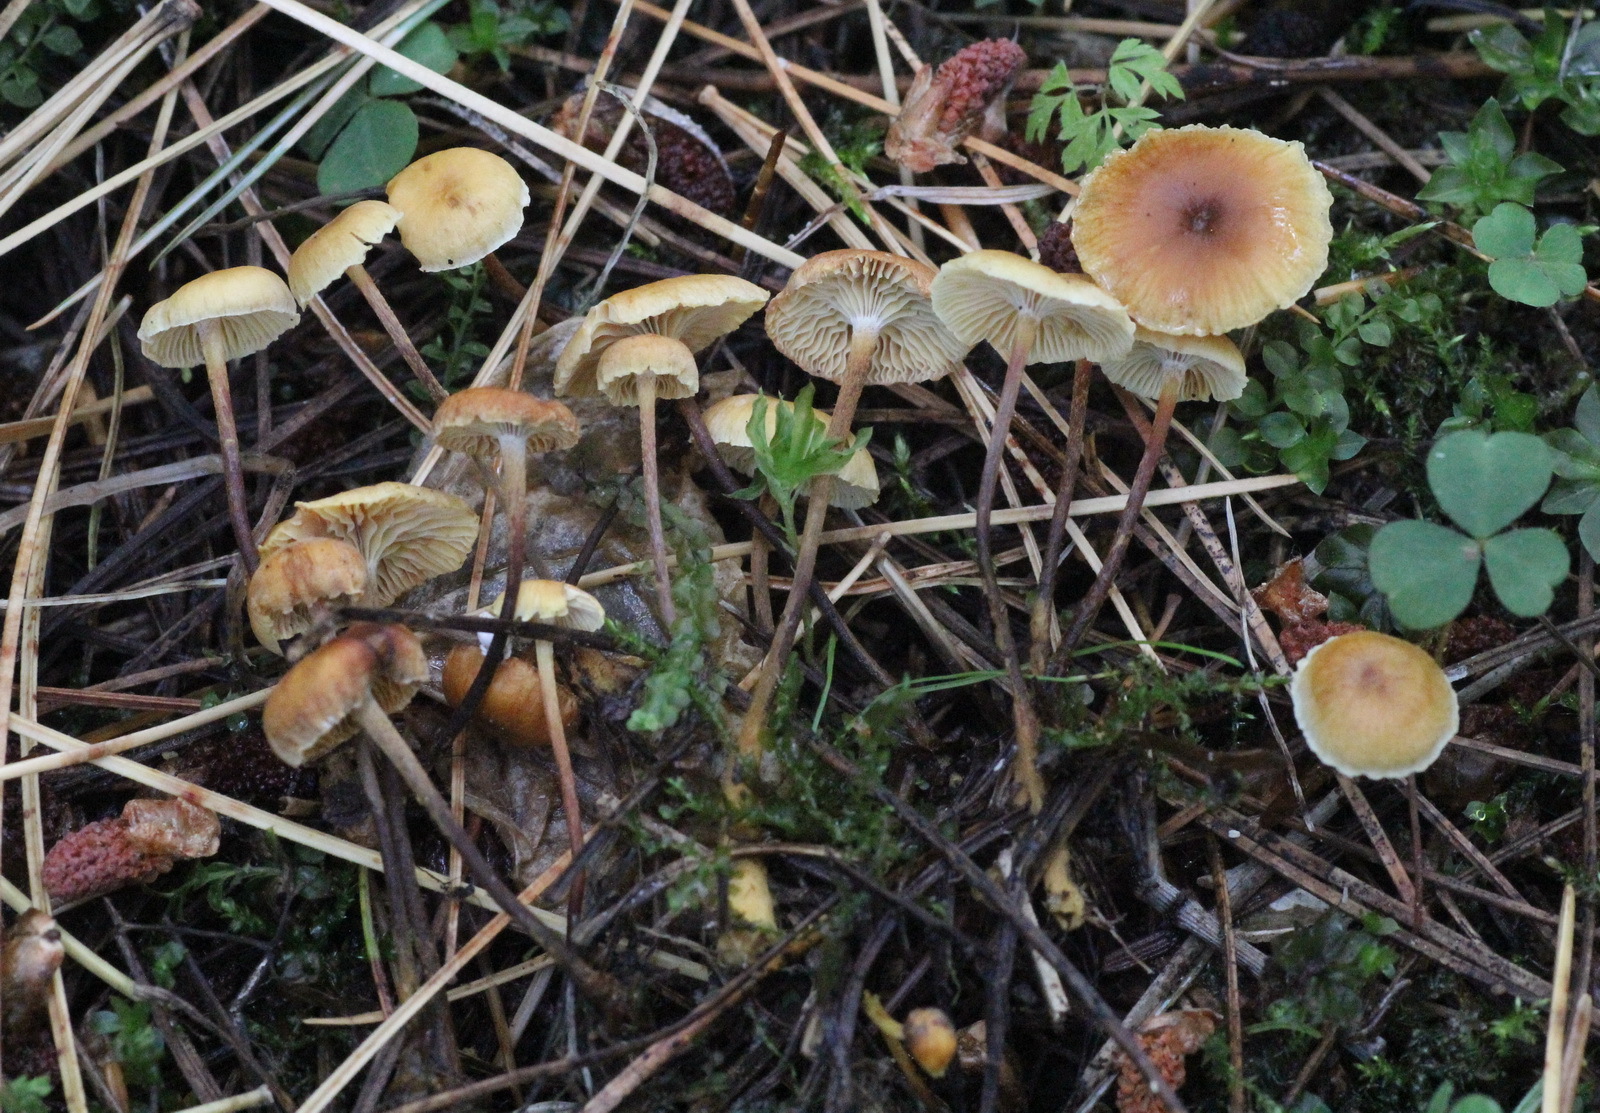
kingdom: Fungi
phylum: Basidiomycota
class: Agaricomycetes
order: Agaricales
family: Mycenaceae
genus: Xeromphalina
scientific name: Xeromphalina cauticinalis
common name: Pinelitter gingertail
